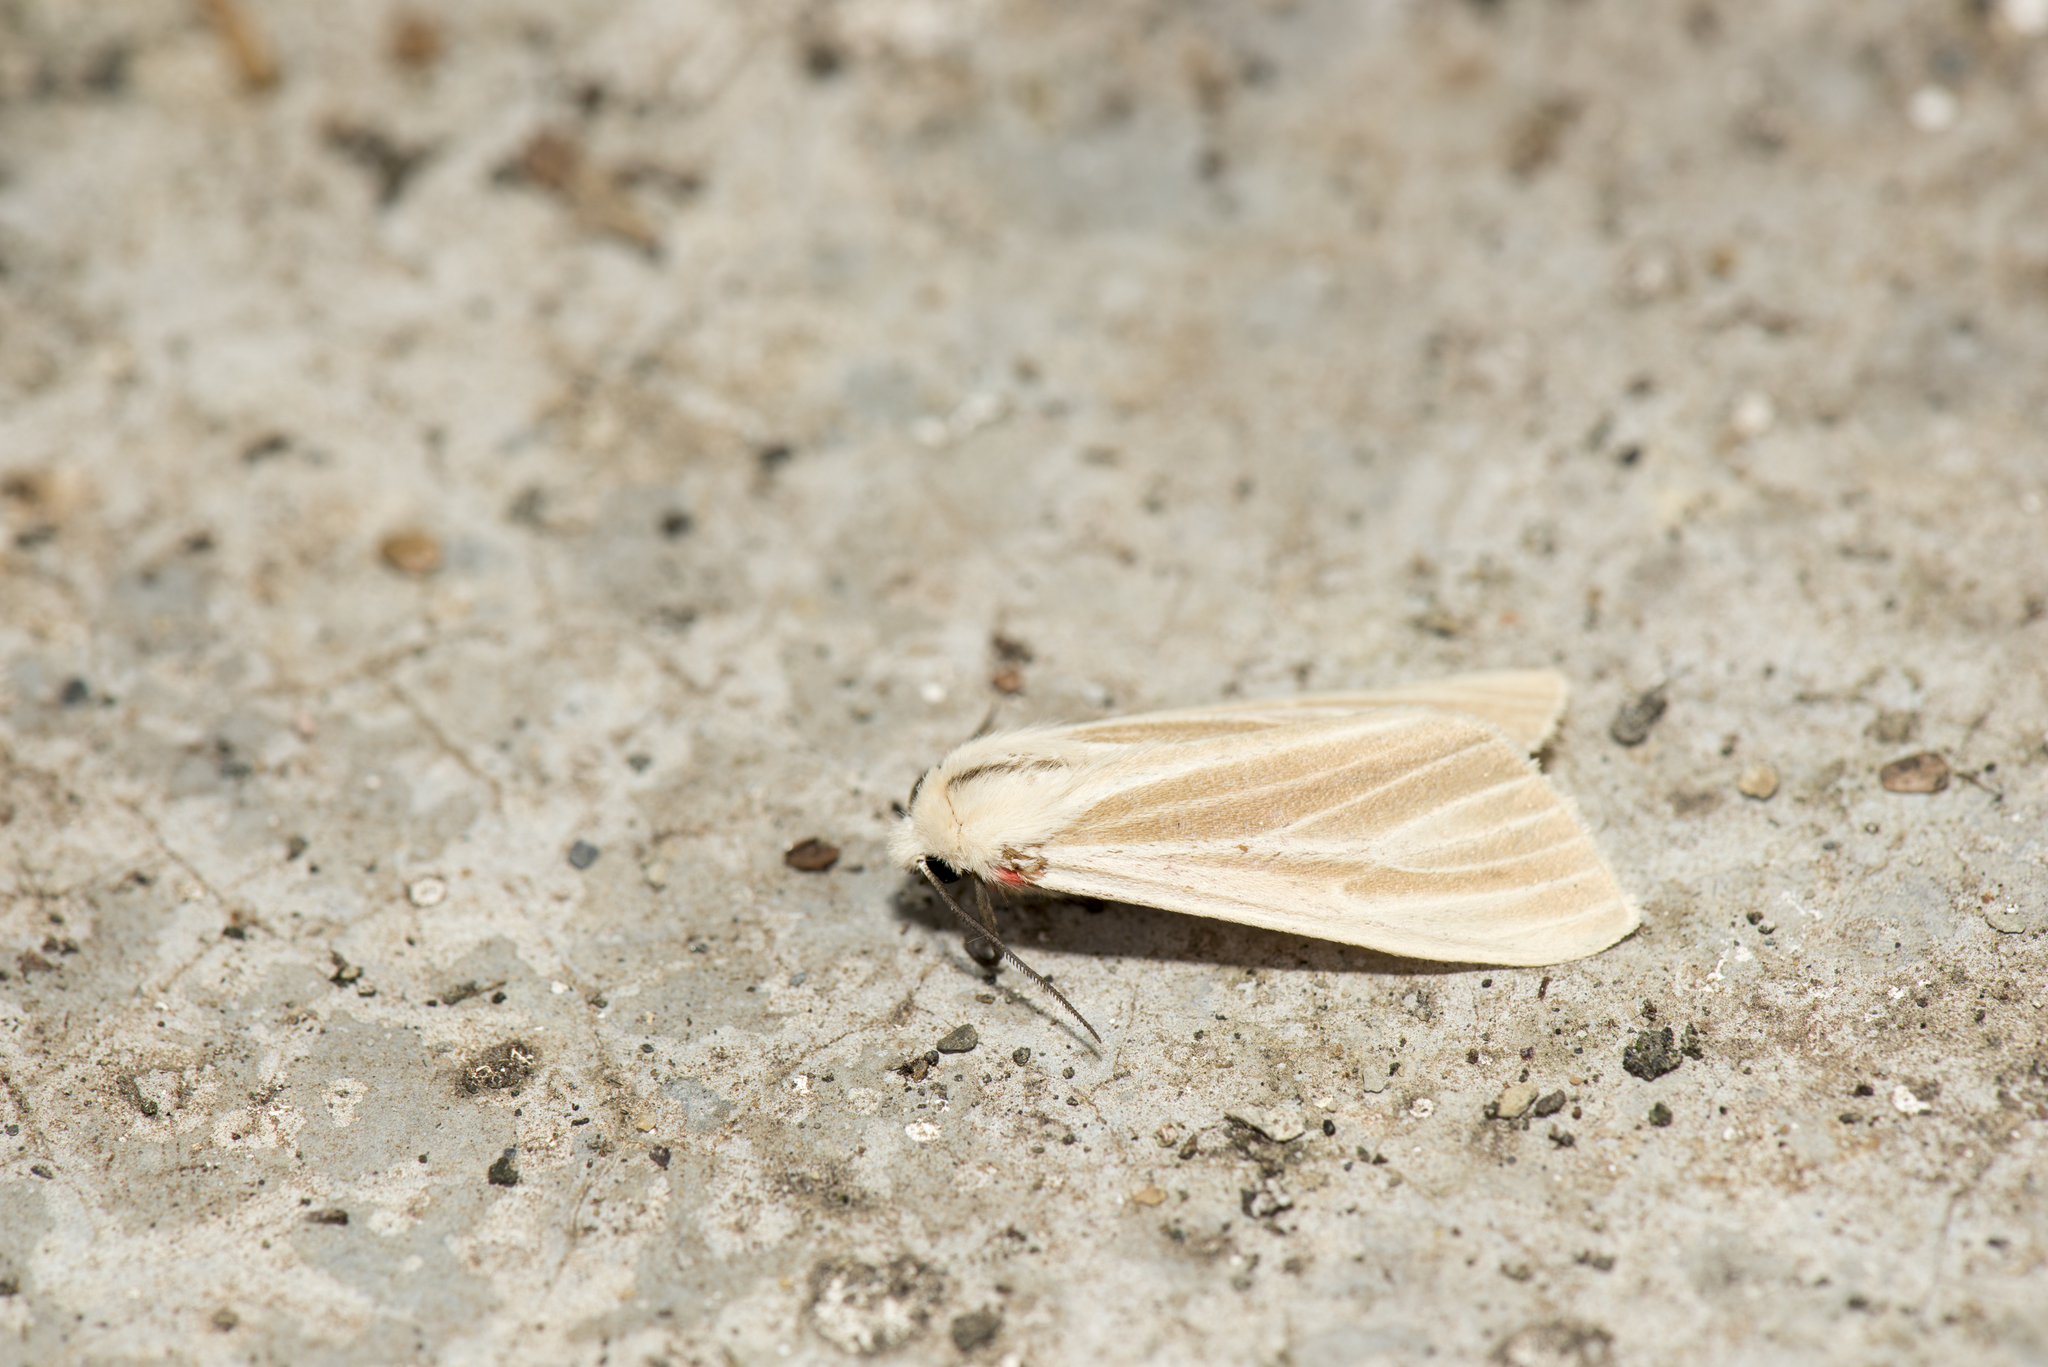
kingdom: Animalia
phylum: Arthropoda
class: Insecta
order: Lepidoptera
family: Erebidae
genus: Spilarctia
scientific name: Spilarctia contaminata
